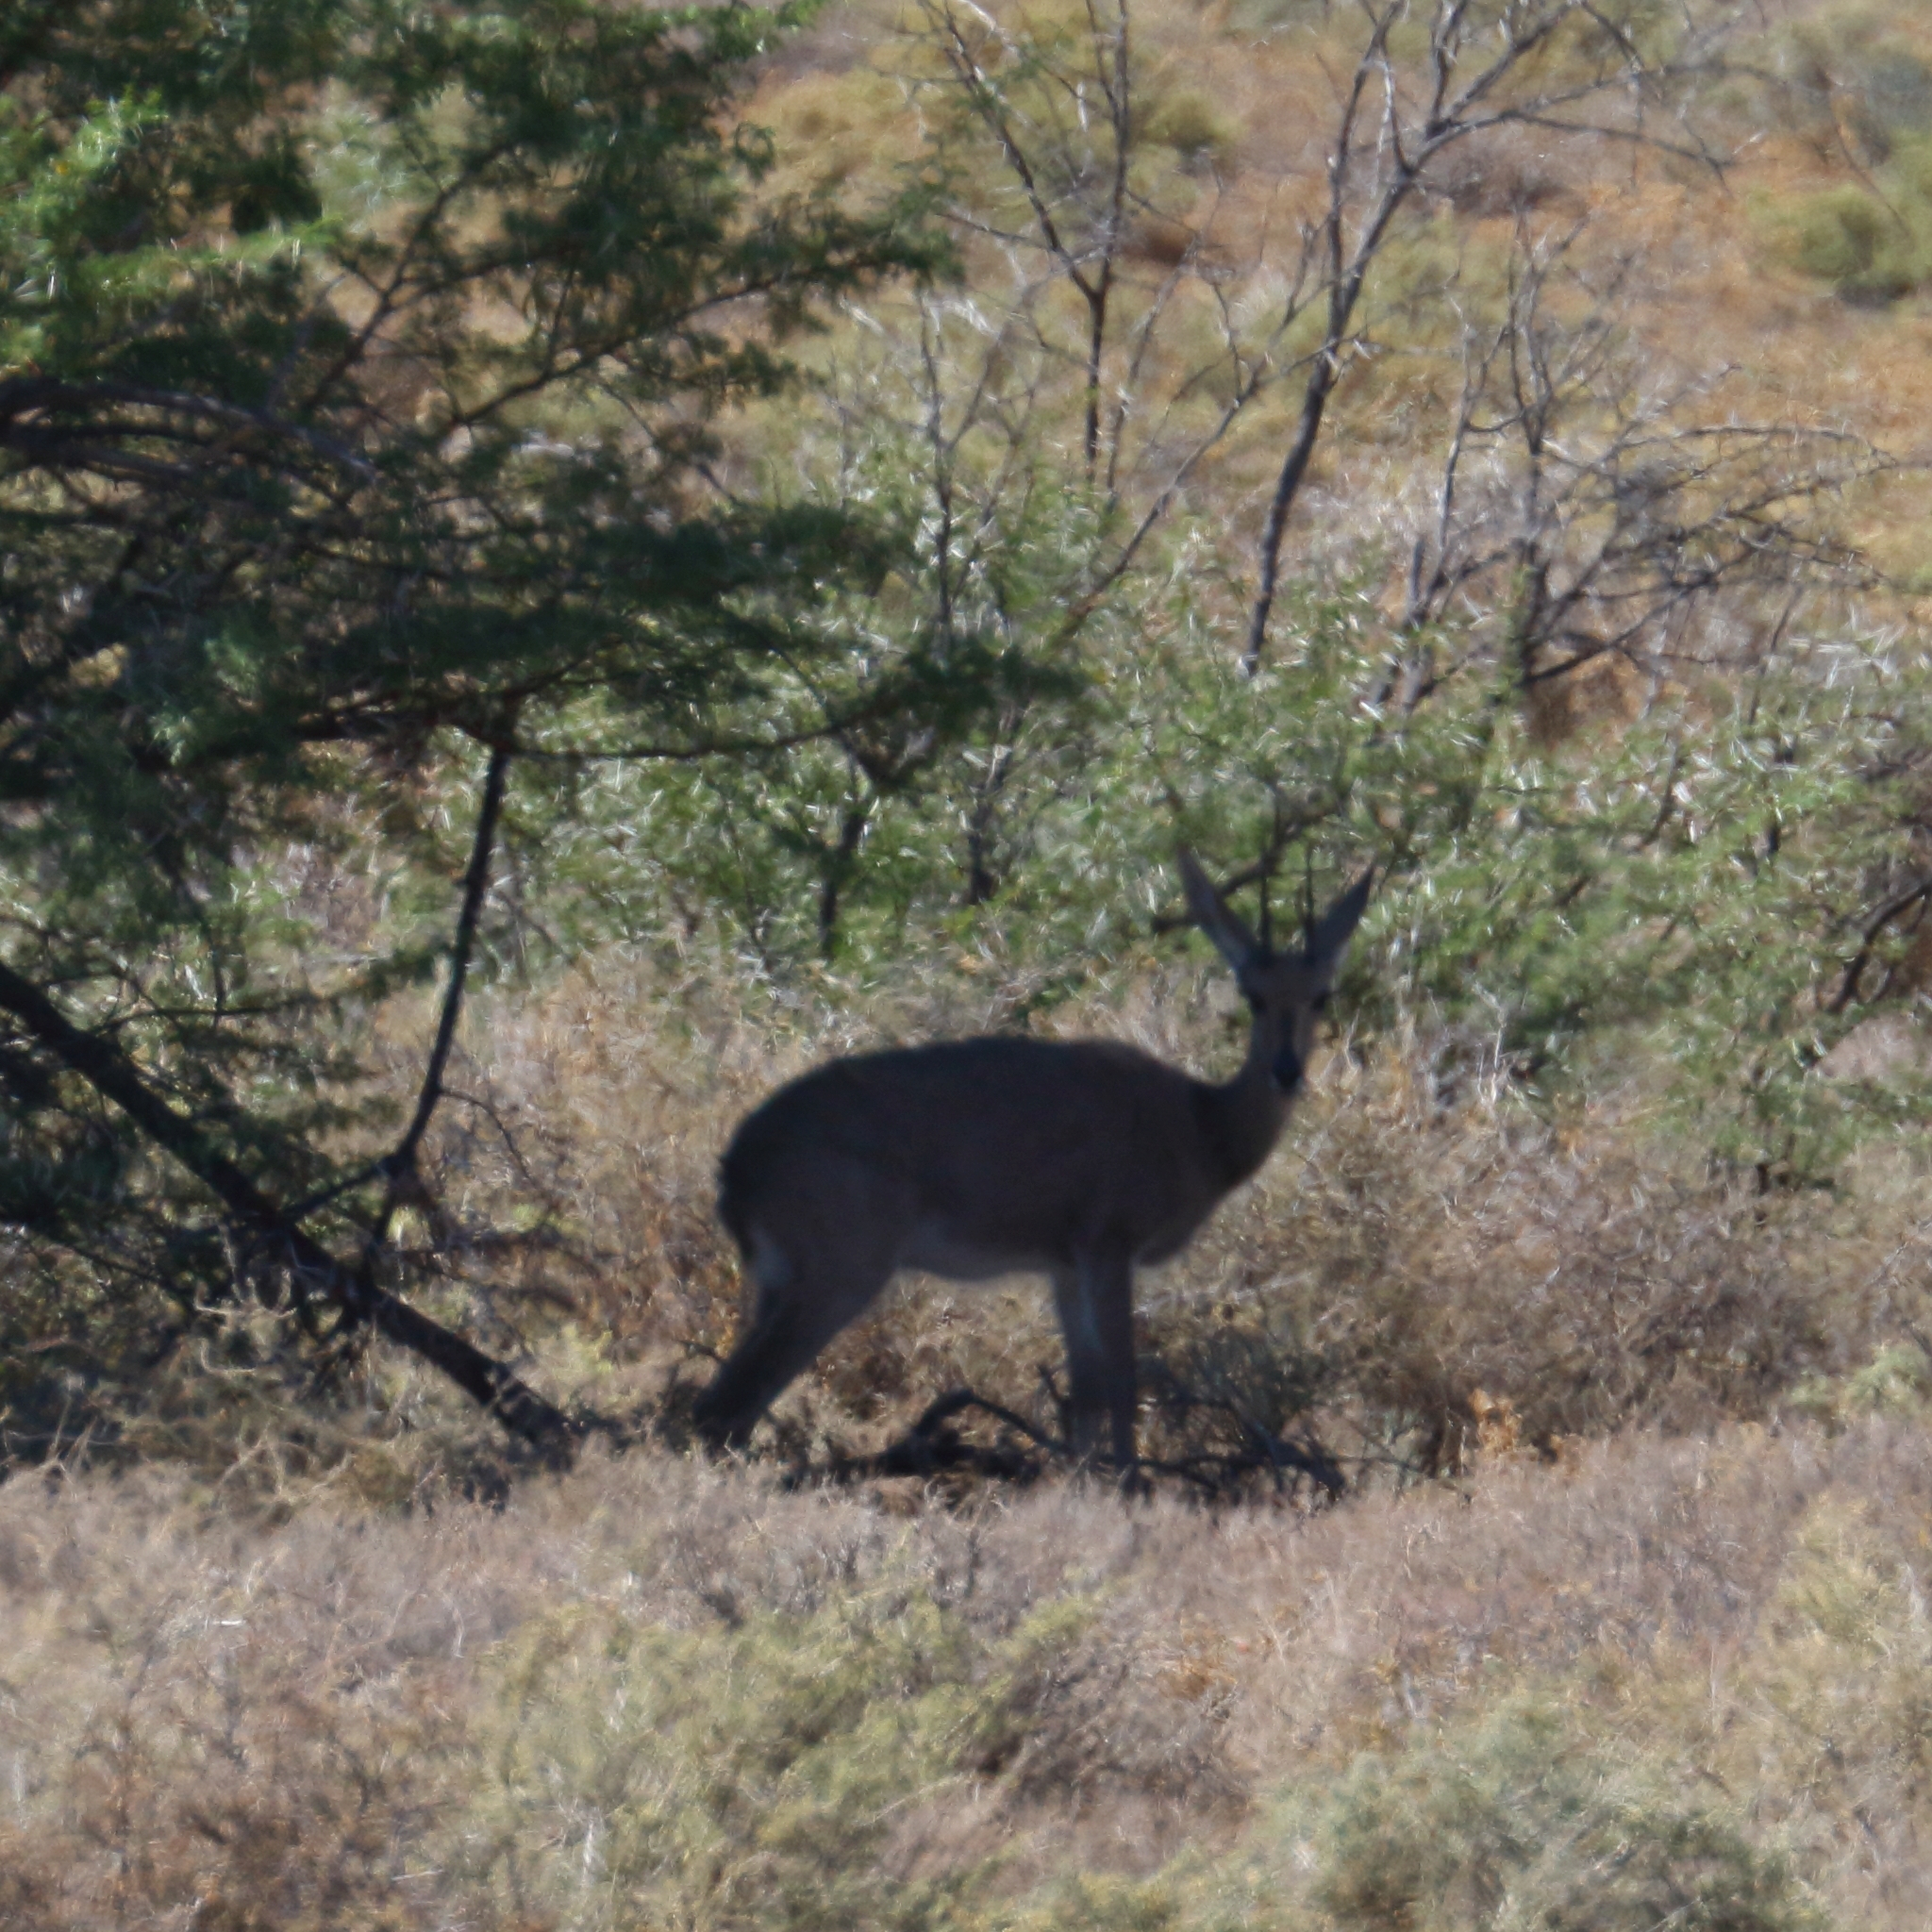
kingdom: Animalia
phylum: Chordata
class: Mammalia
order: Artiodactyla
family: Bovidae
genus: Pelea
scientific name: Pelea capreolus
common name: Common rhebok
